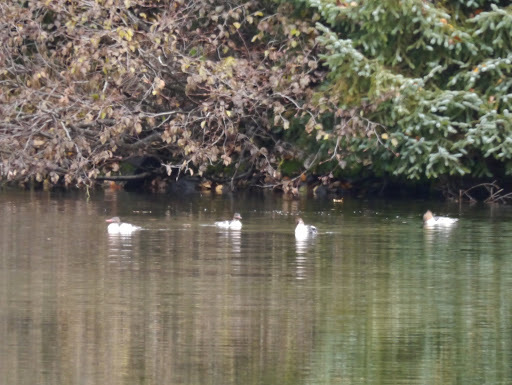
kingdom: Animalia
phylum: Chordata
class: Aves
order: Anseriformes
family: Anatidae
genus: Mergus
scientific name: Mergus merganser
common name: Common merganser
